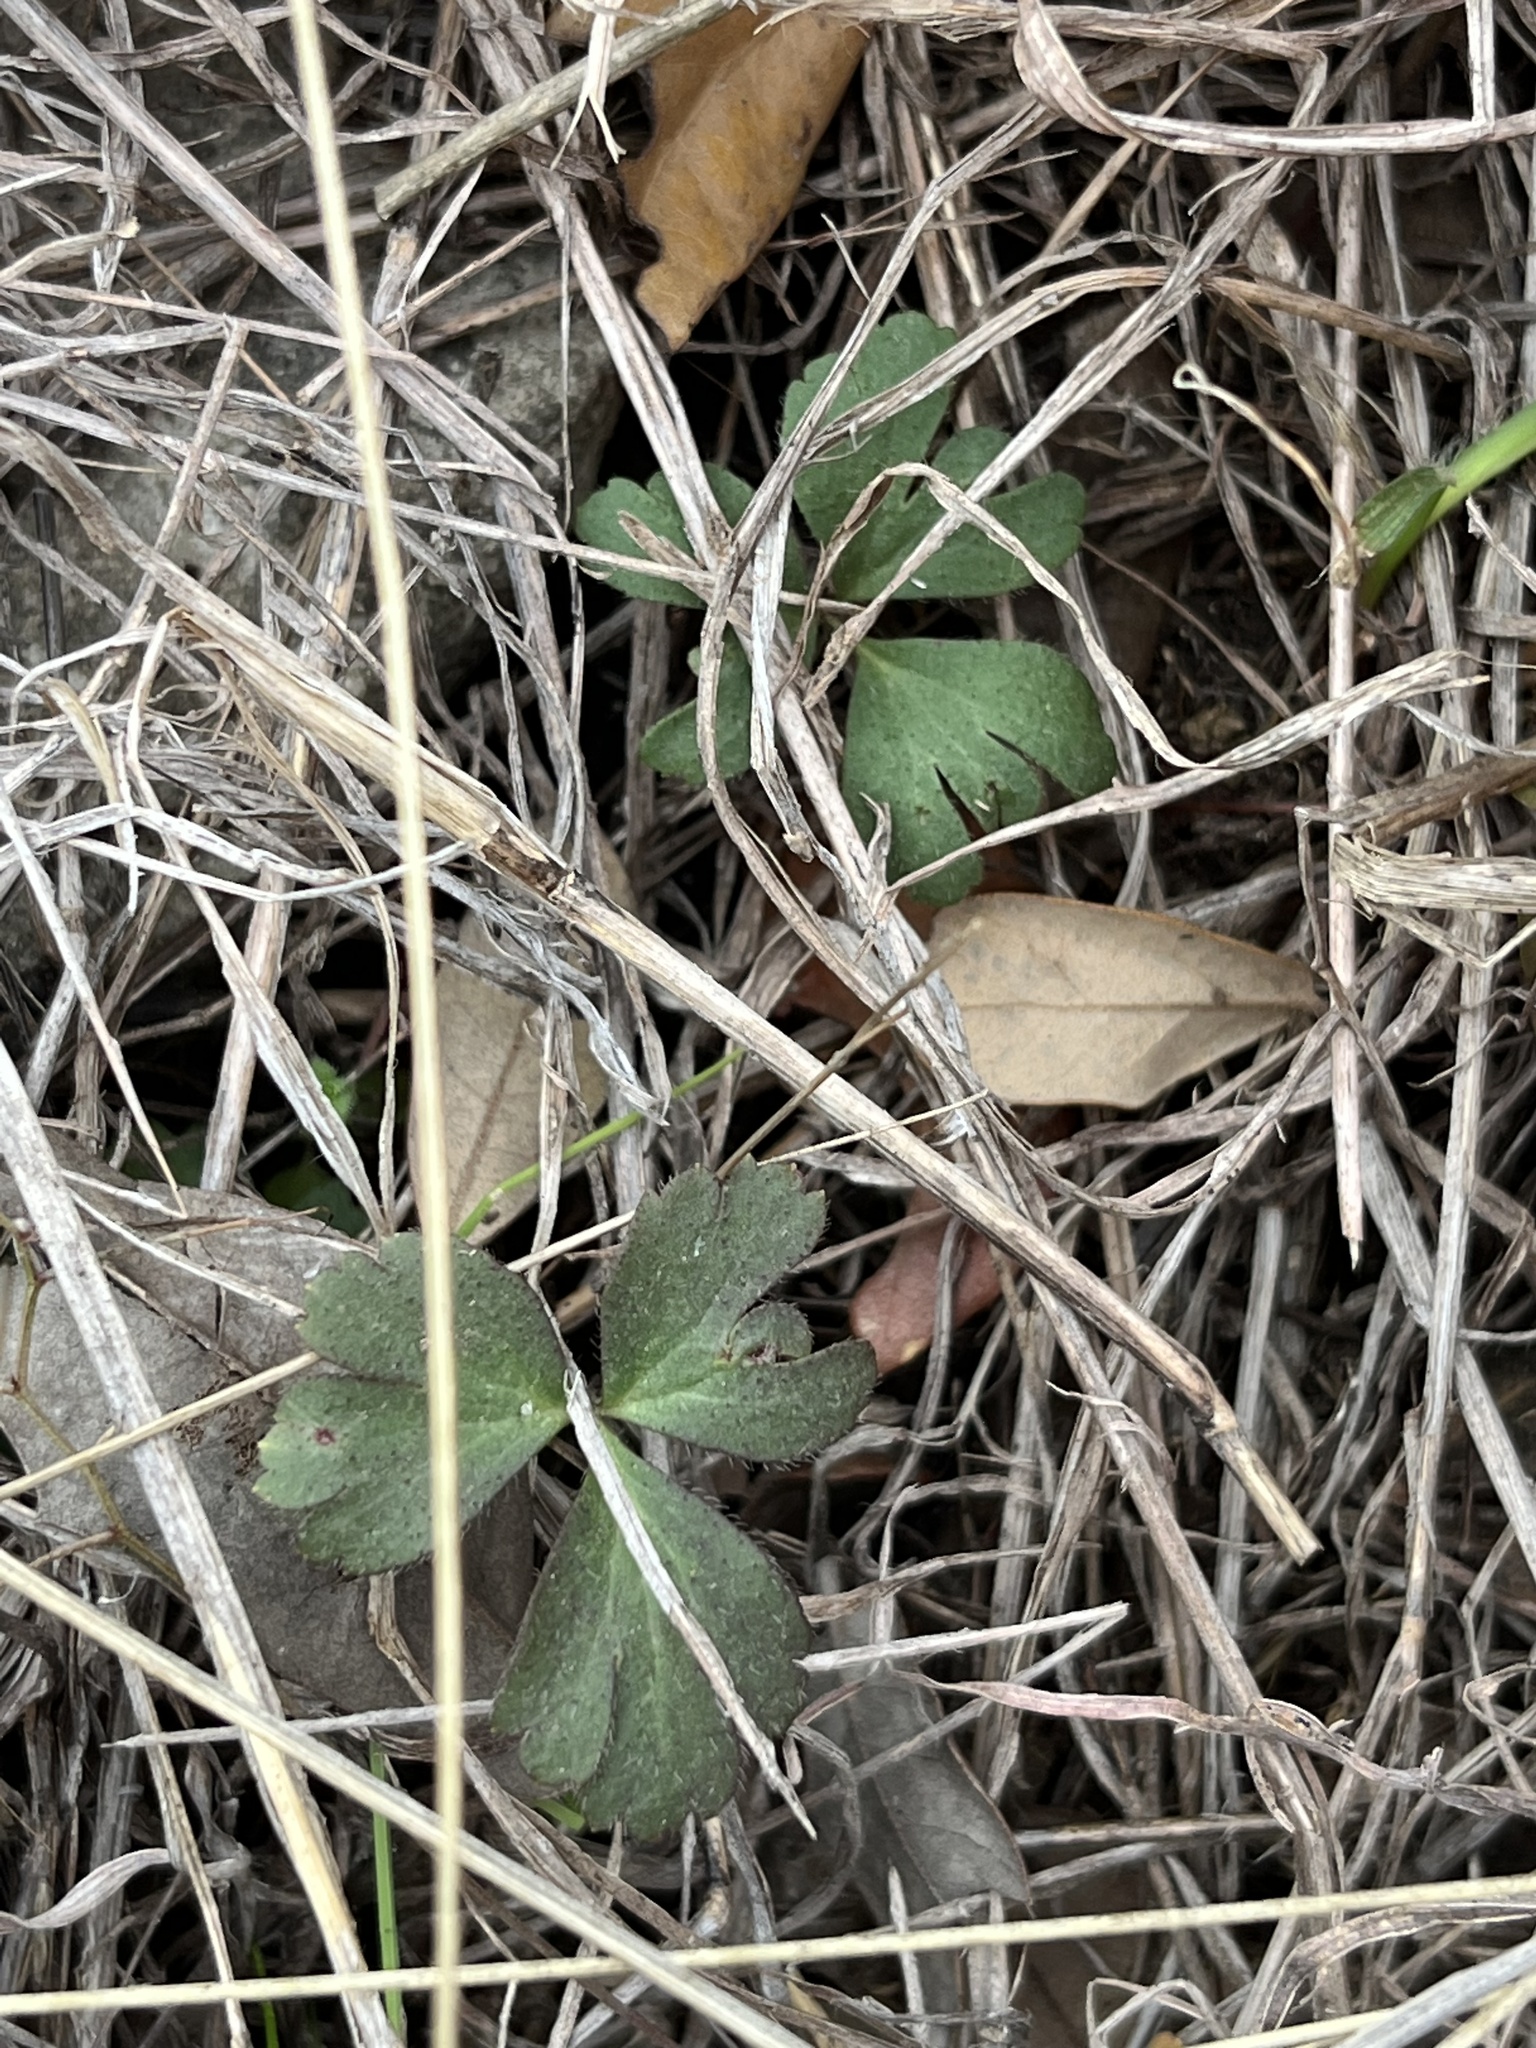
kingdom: Plantae
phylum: Tracheophyta
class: Magnoliopsida
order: Ranunculales
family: Ranunculaceae
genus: Anemone
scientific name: Anemone berlandieri
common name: Ten-petal anemone
